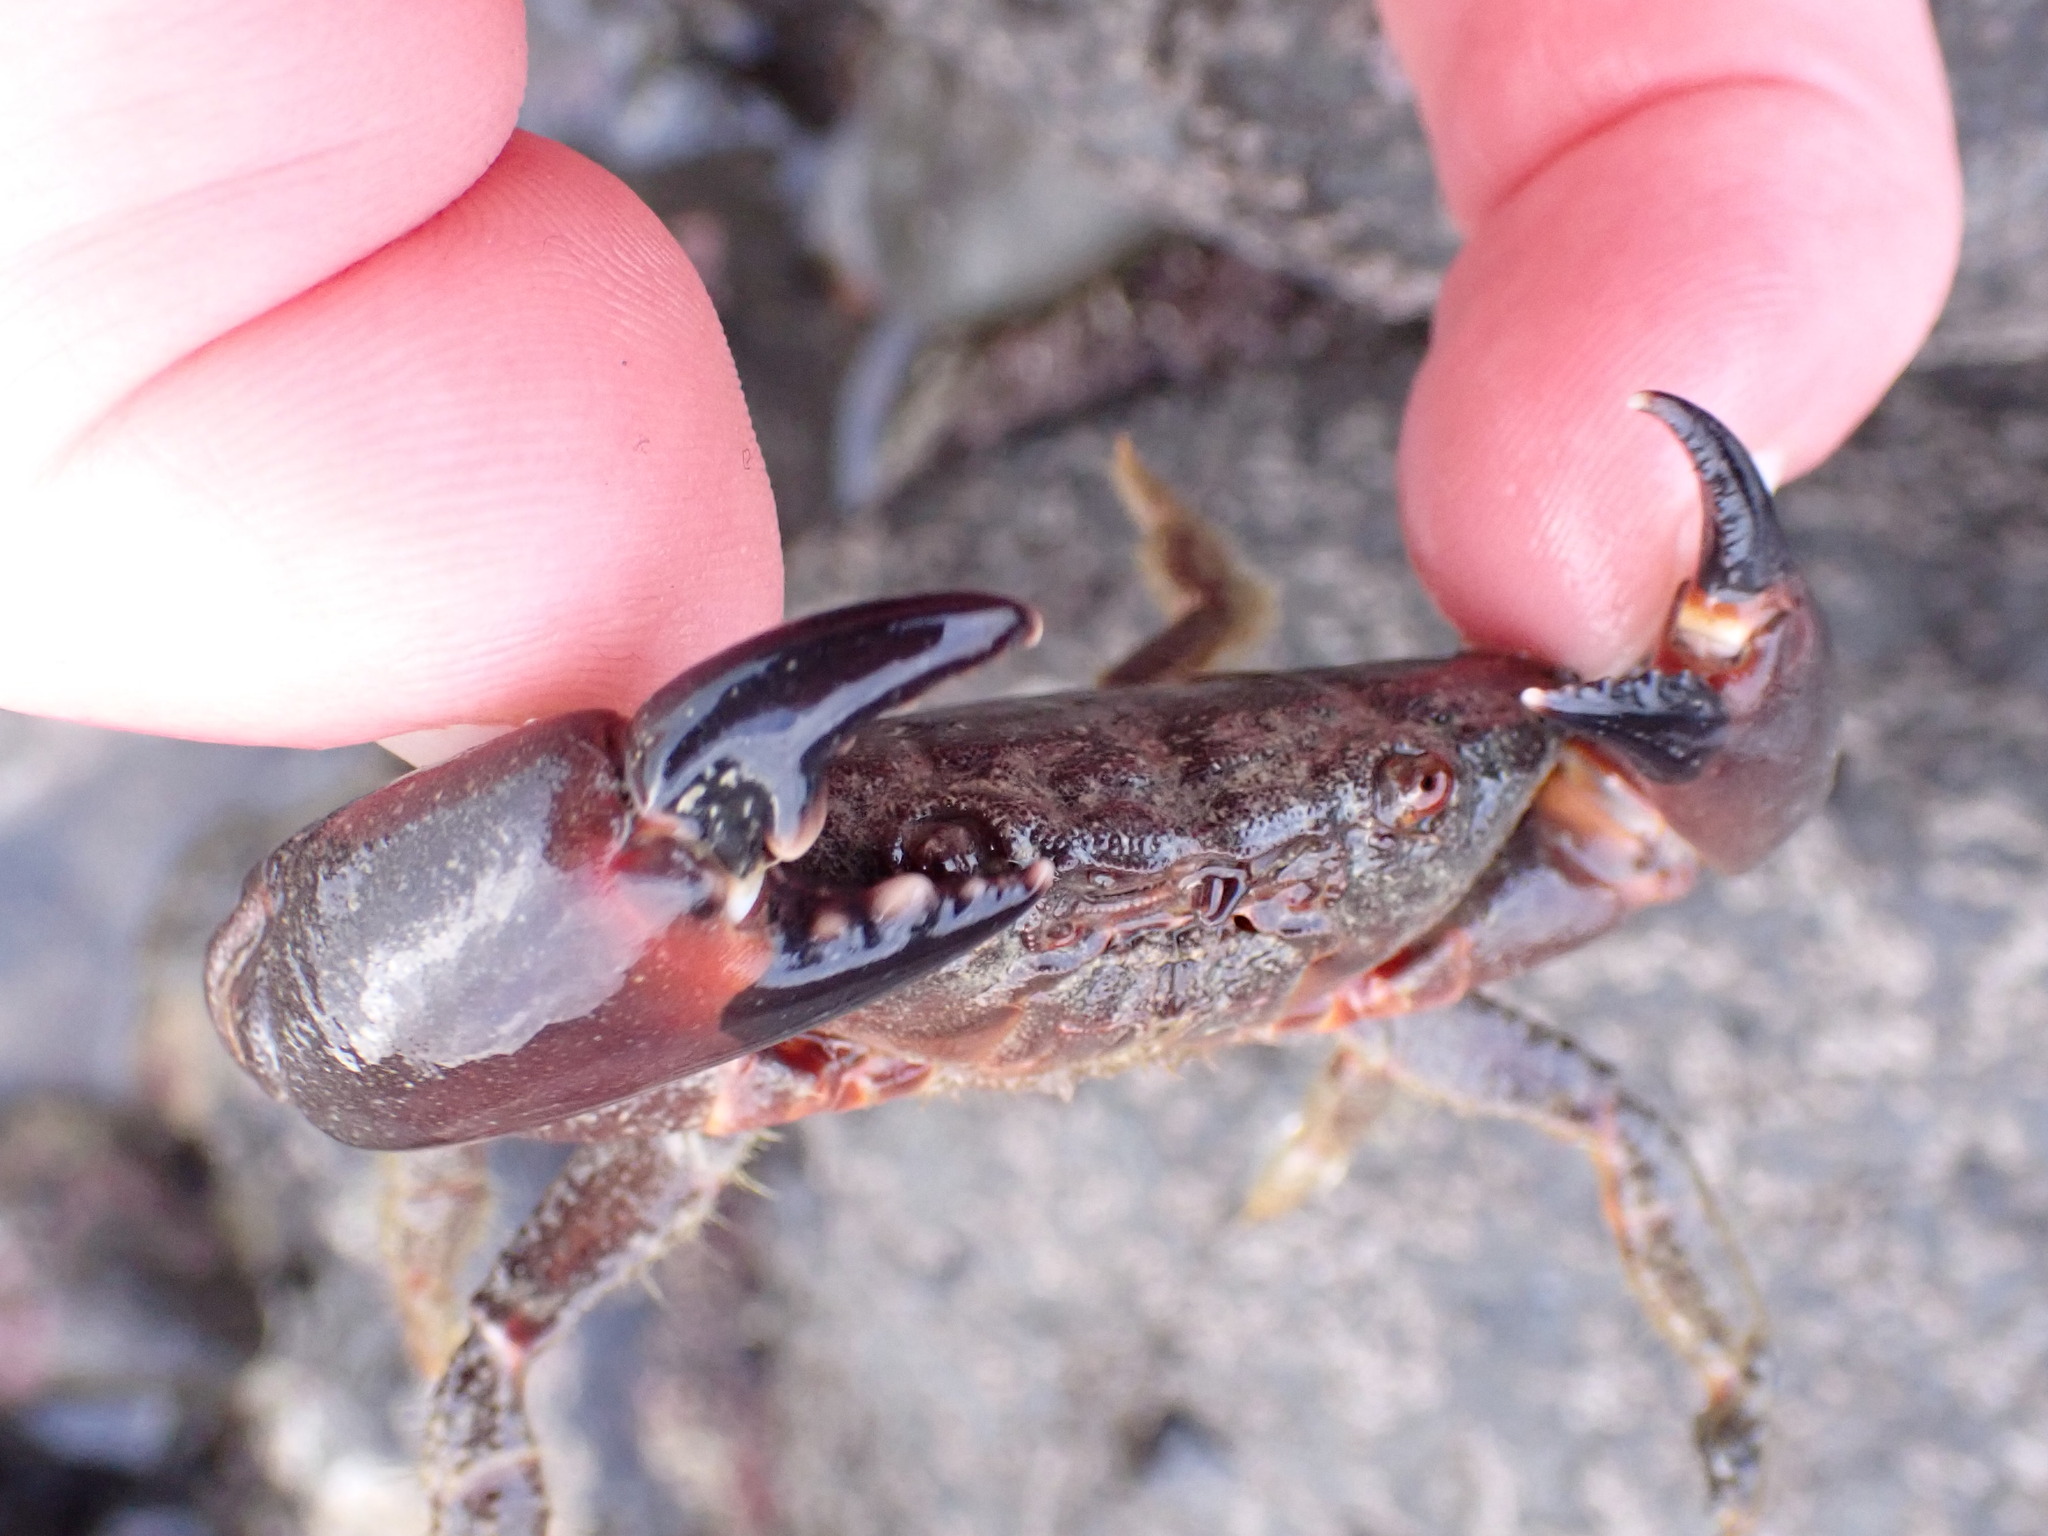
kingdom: Animalia
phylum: Arthropoda
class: Malacostraca
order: Decapoda
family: Oziidae
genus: Ozius
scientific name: Ozius deplanatus
